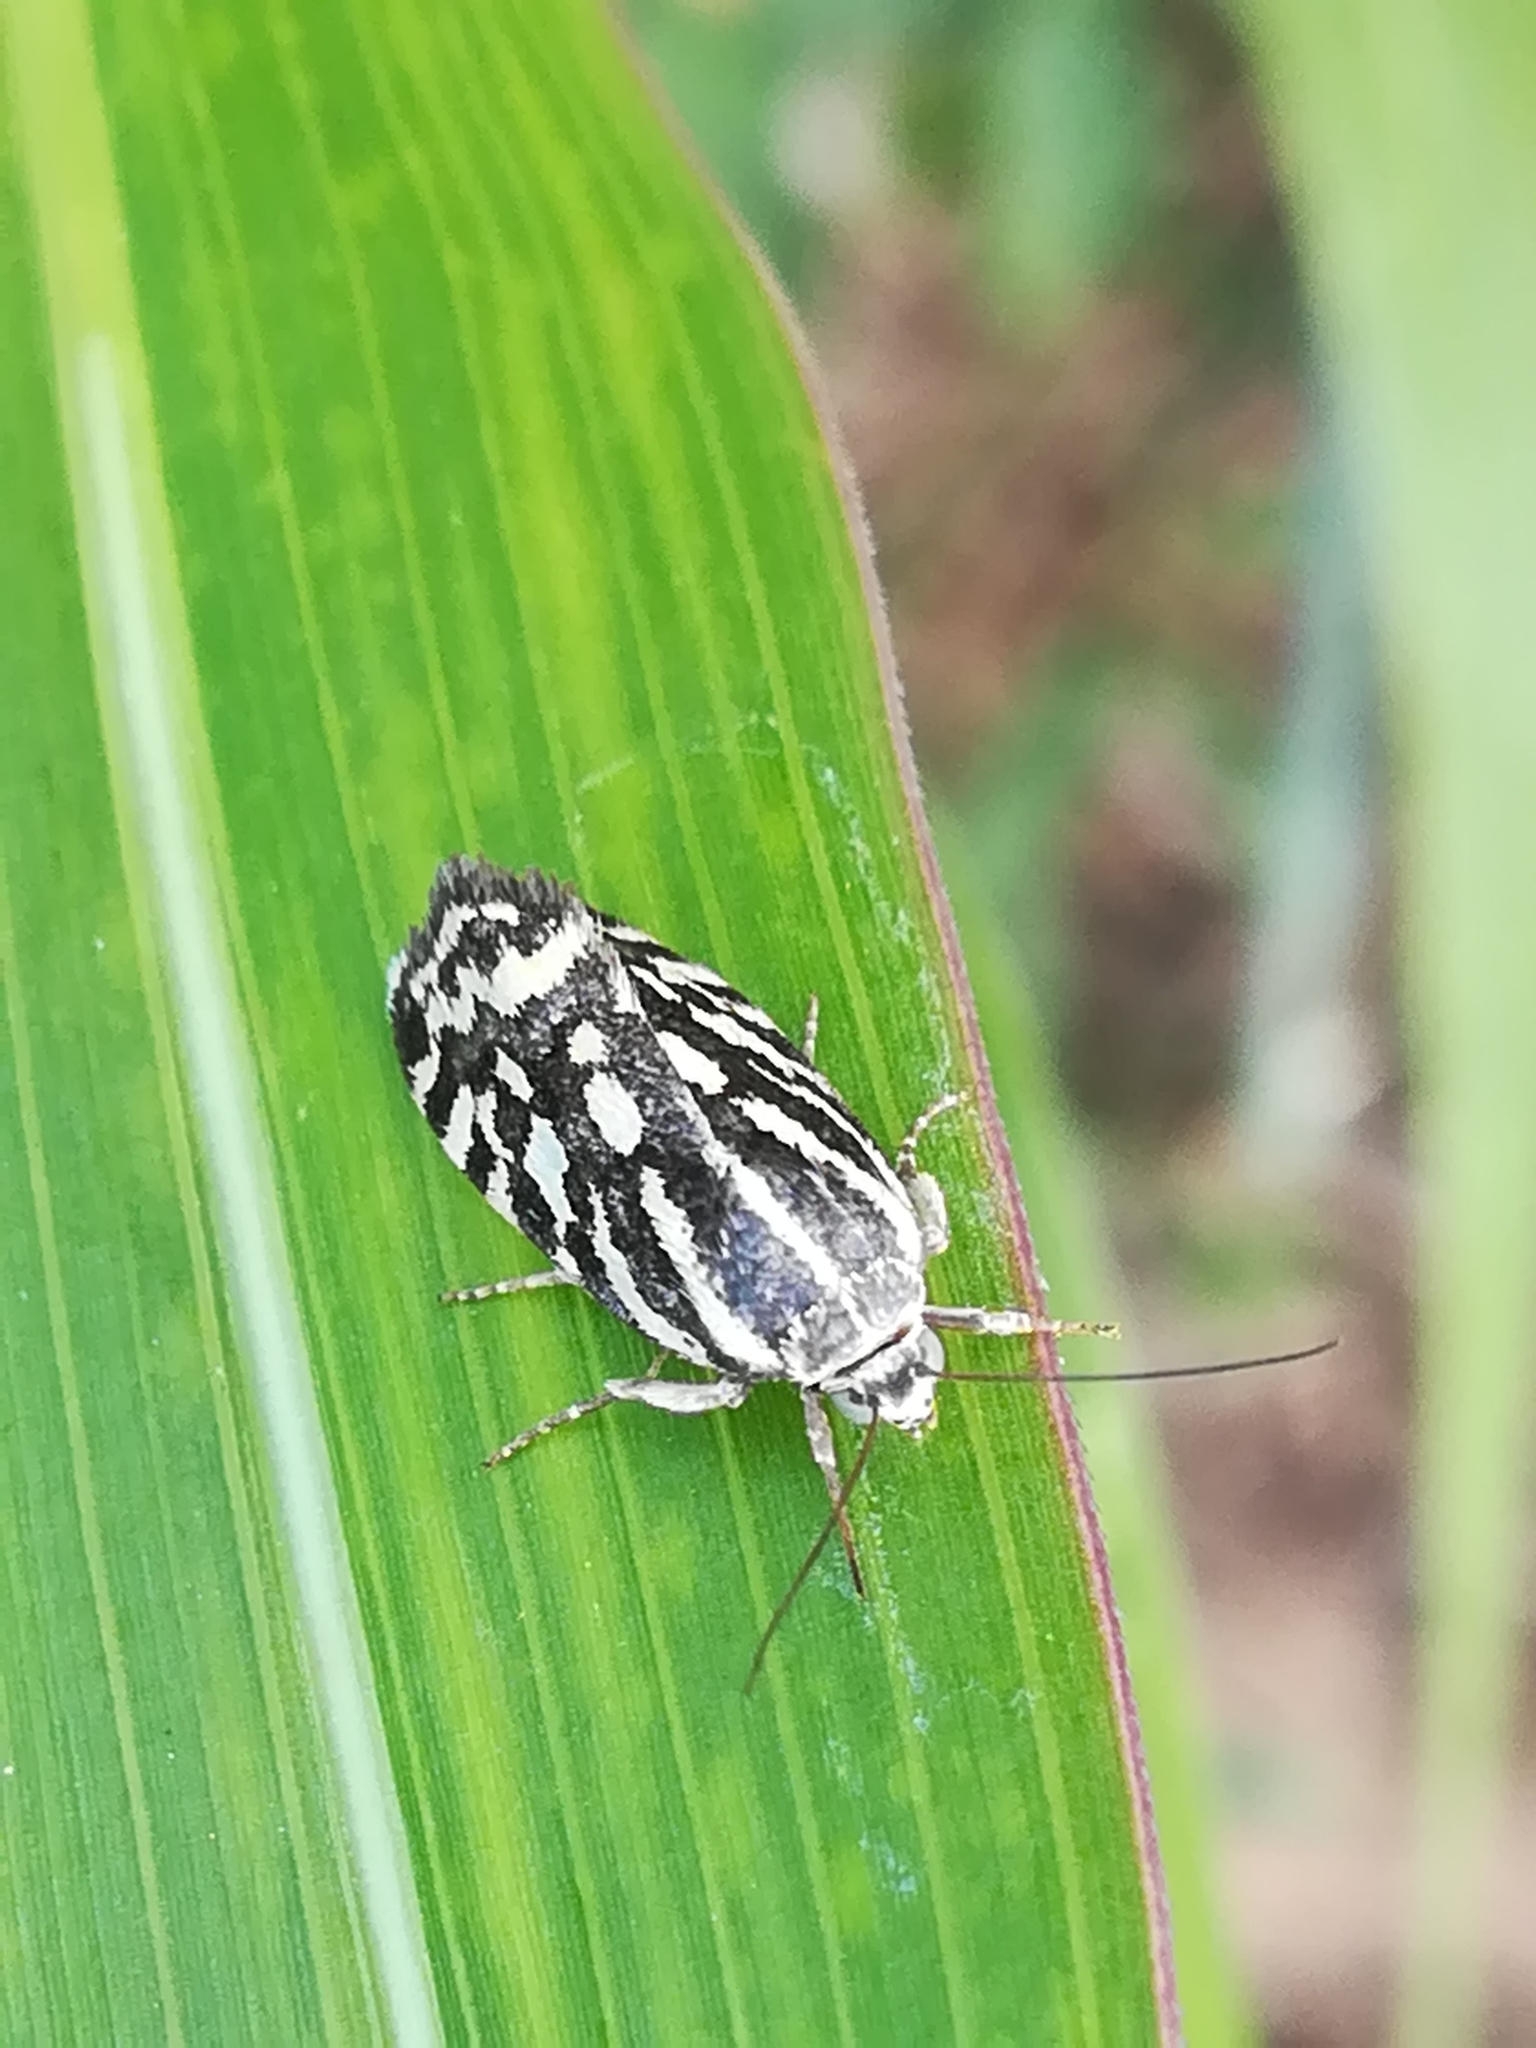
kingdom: Animalia
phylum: Arthropoda
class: Insecta
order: Lepidoptera
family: Noctuidae
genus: Acontia
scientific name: Acontia trabealis
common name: Spotted sulphur
